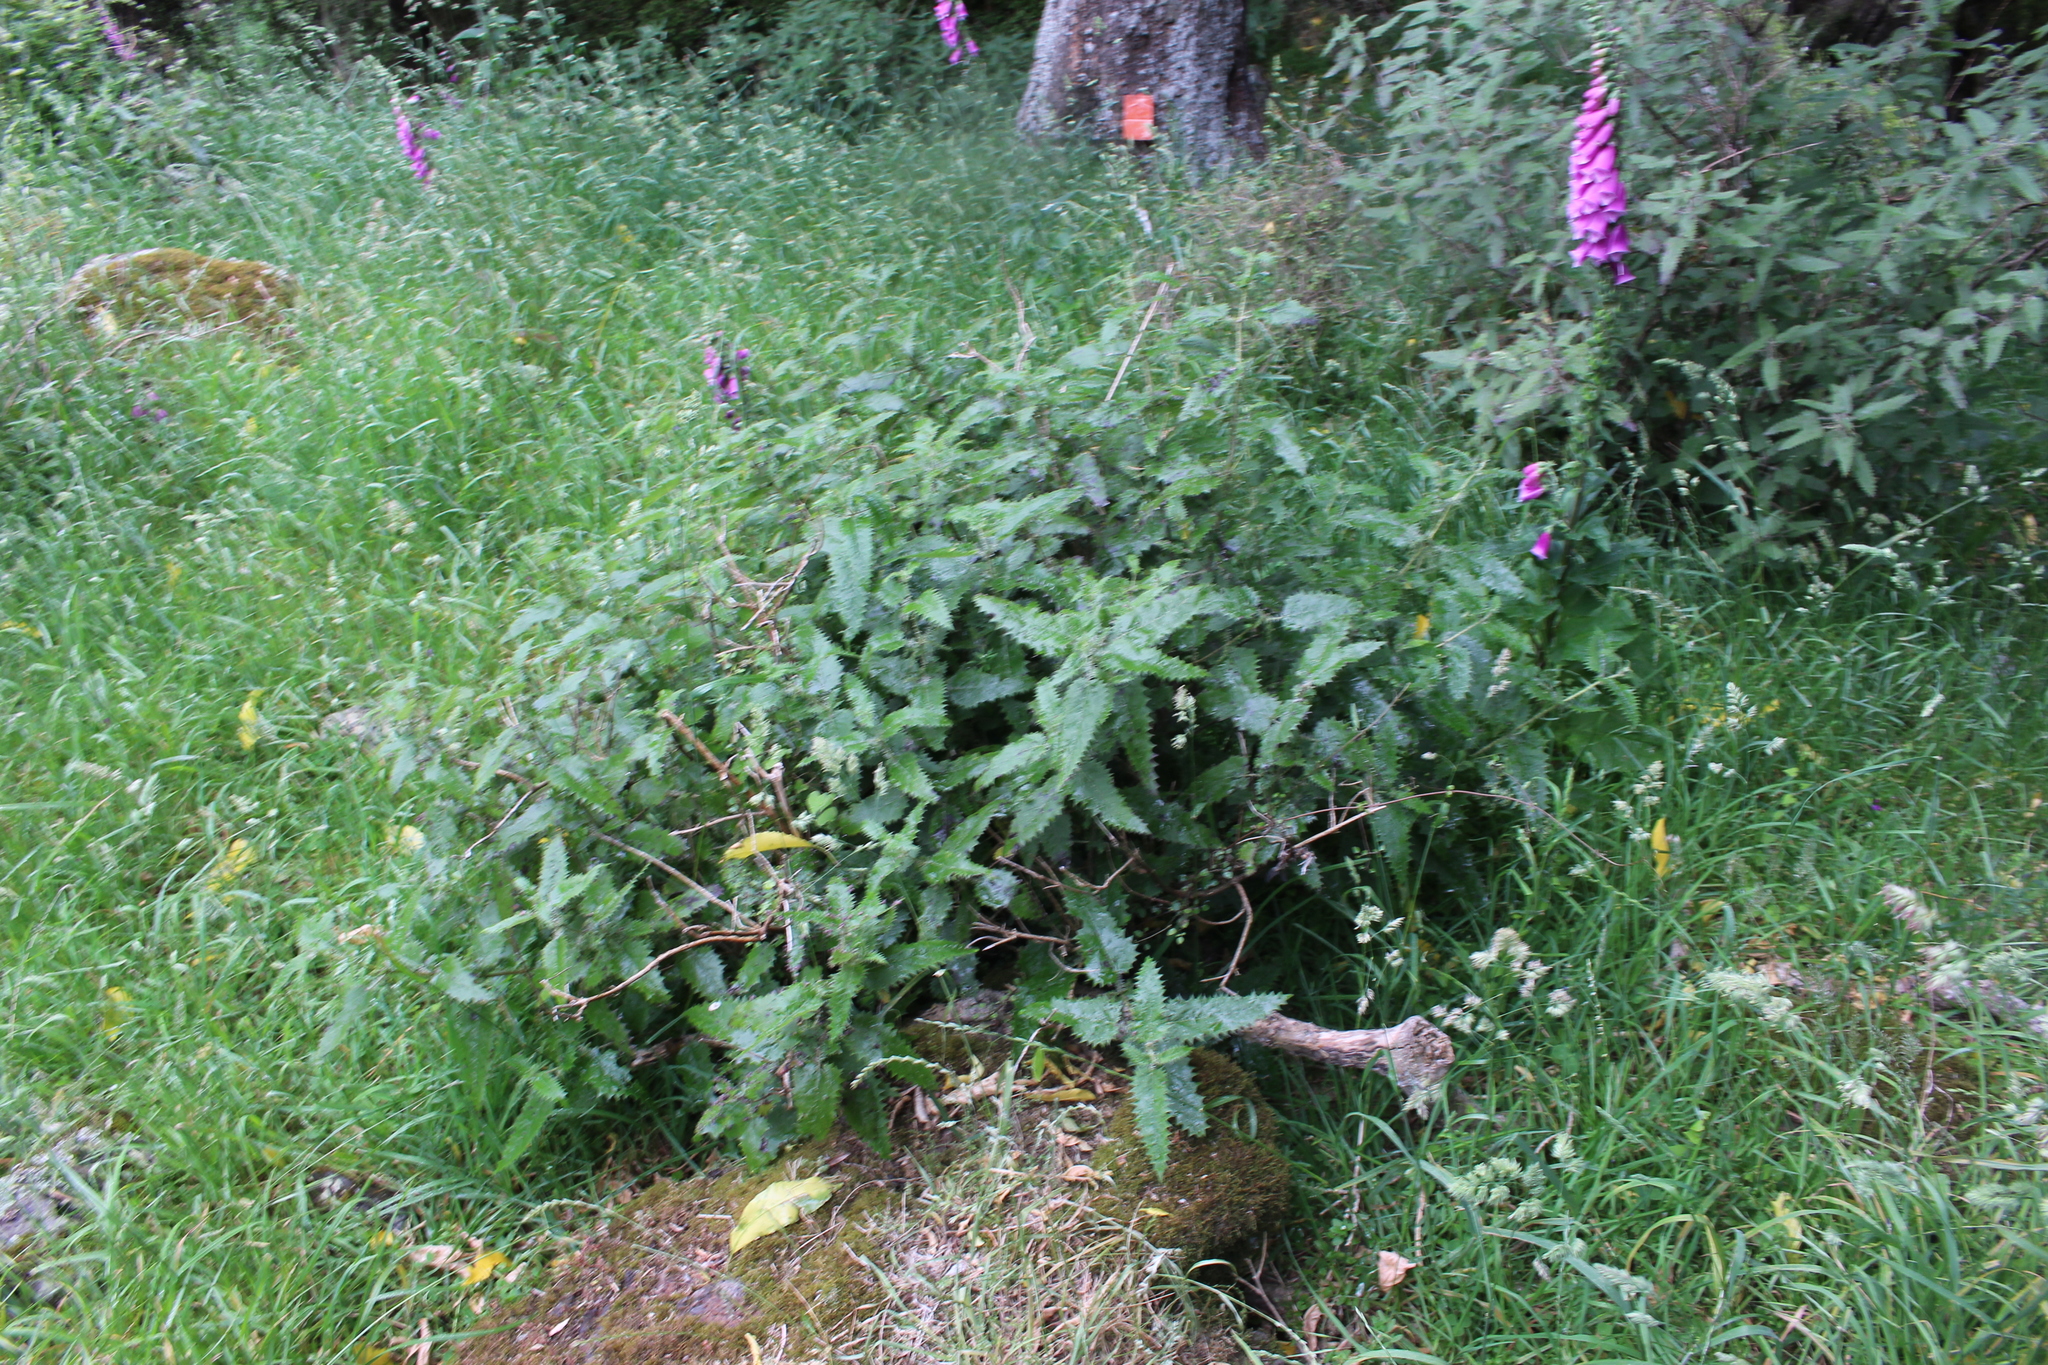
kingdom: Plantae
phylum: Tracheophyta
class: Magnoliopsida
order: Rosales
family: Urticaceae
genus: Urtica
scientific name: Urtica ferox
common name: Tree nettle
